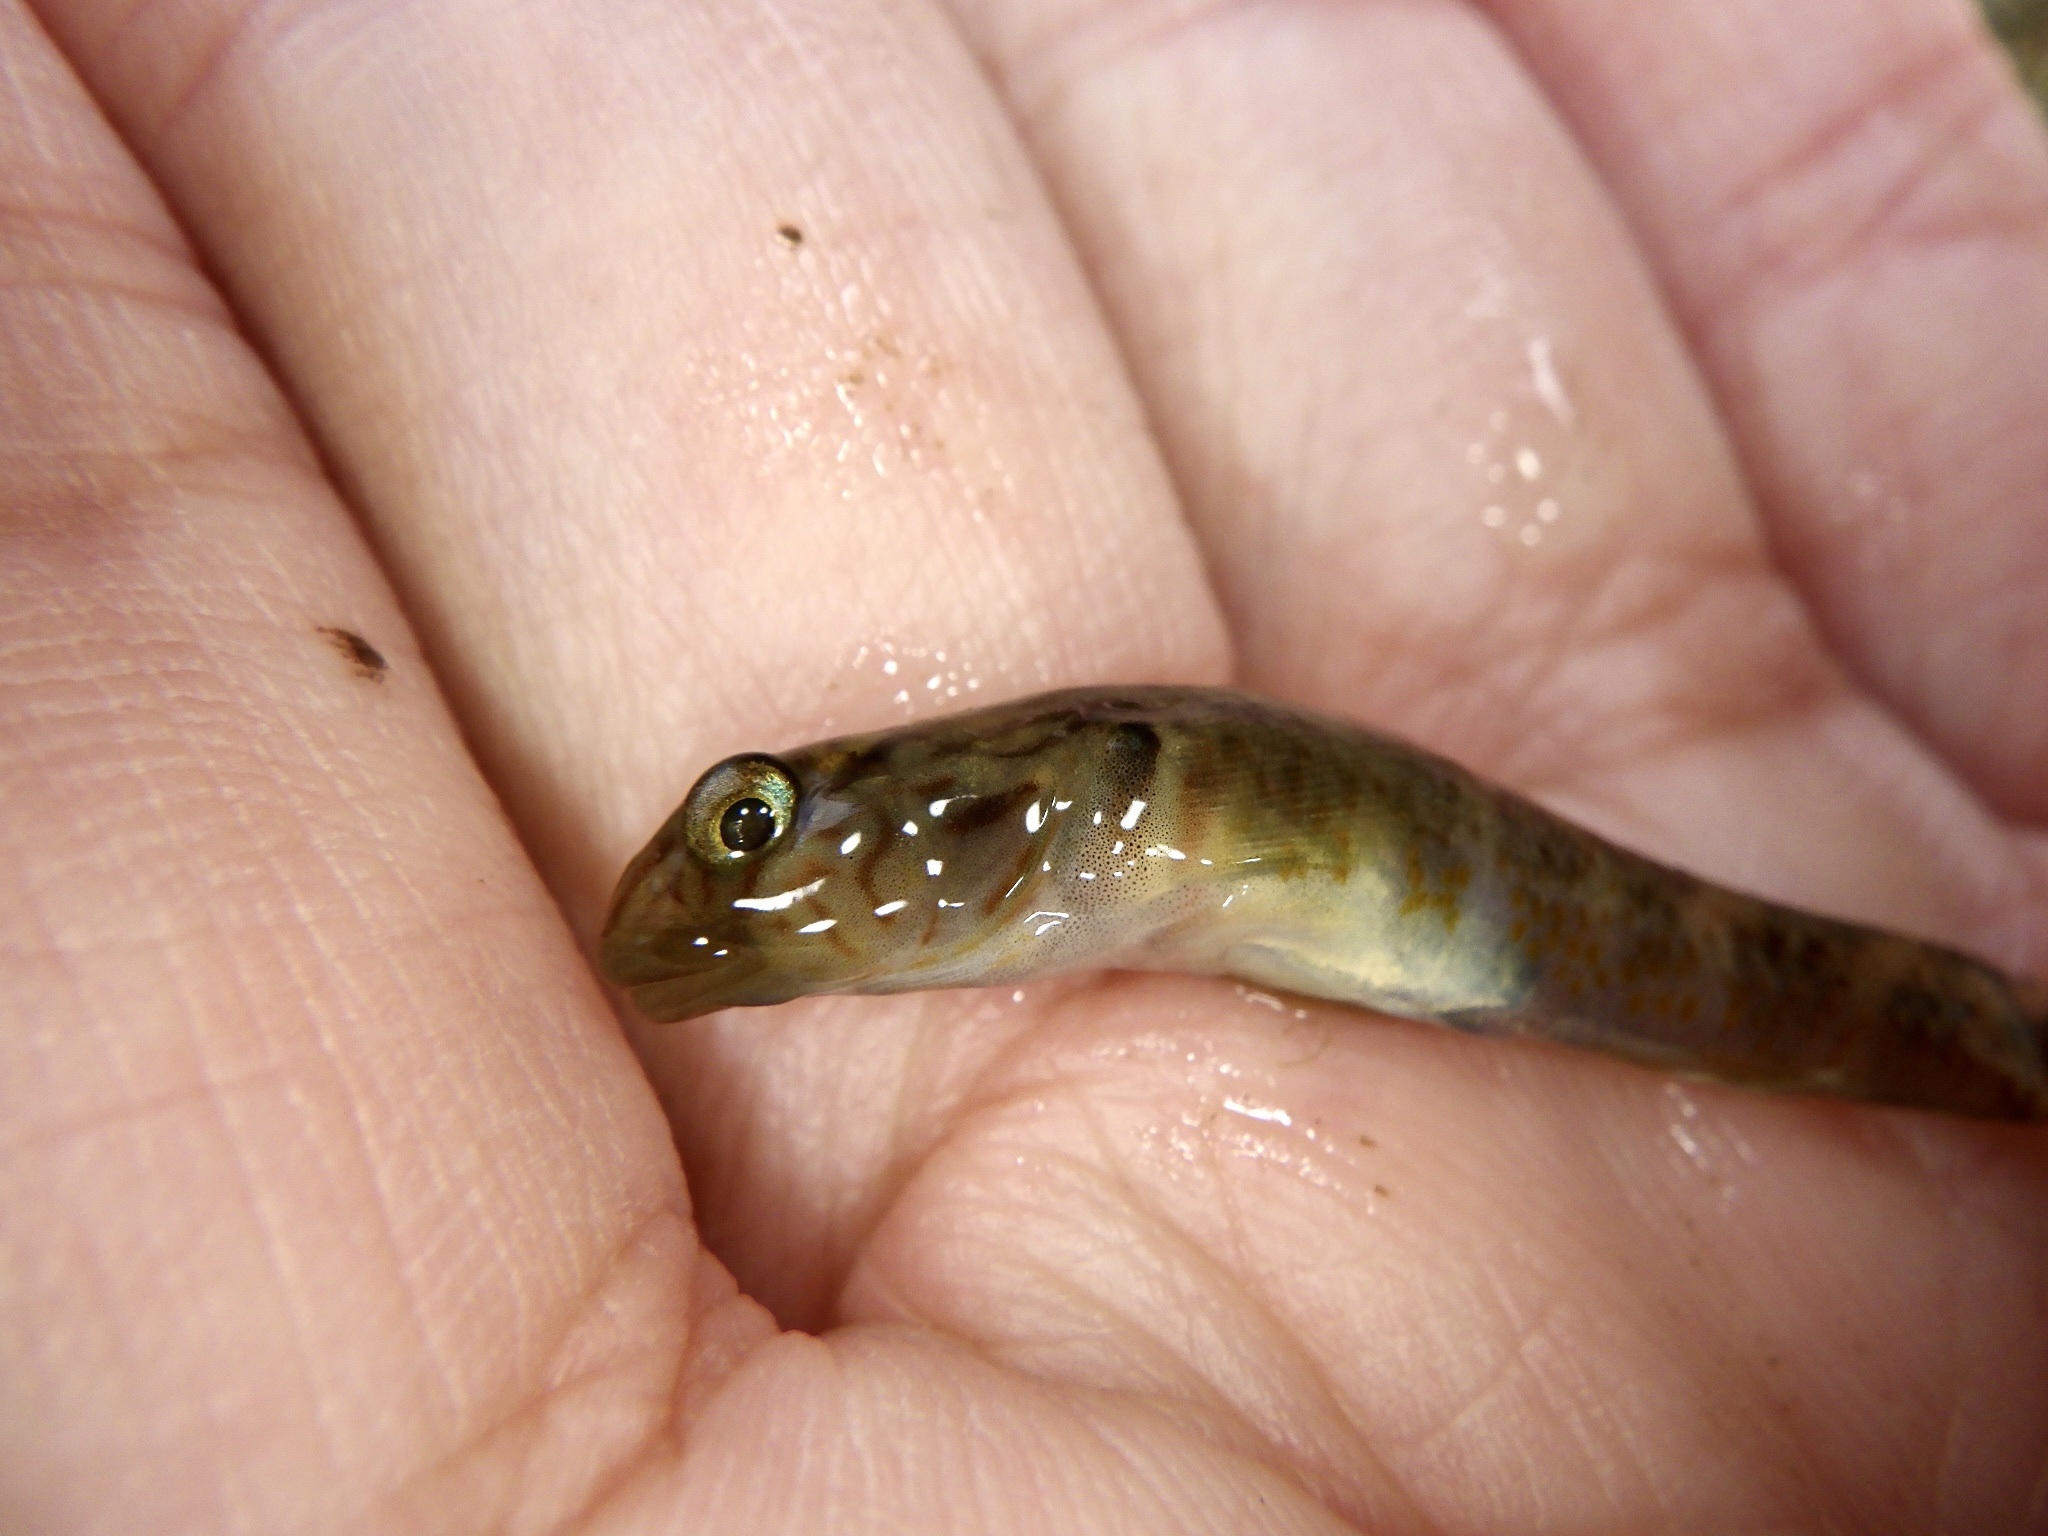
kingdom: Animalia
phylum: Chordata
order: Perciformes
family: Gobiidae
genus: Rhinogobius
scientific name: Rhinogobius nagoyae
